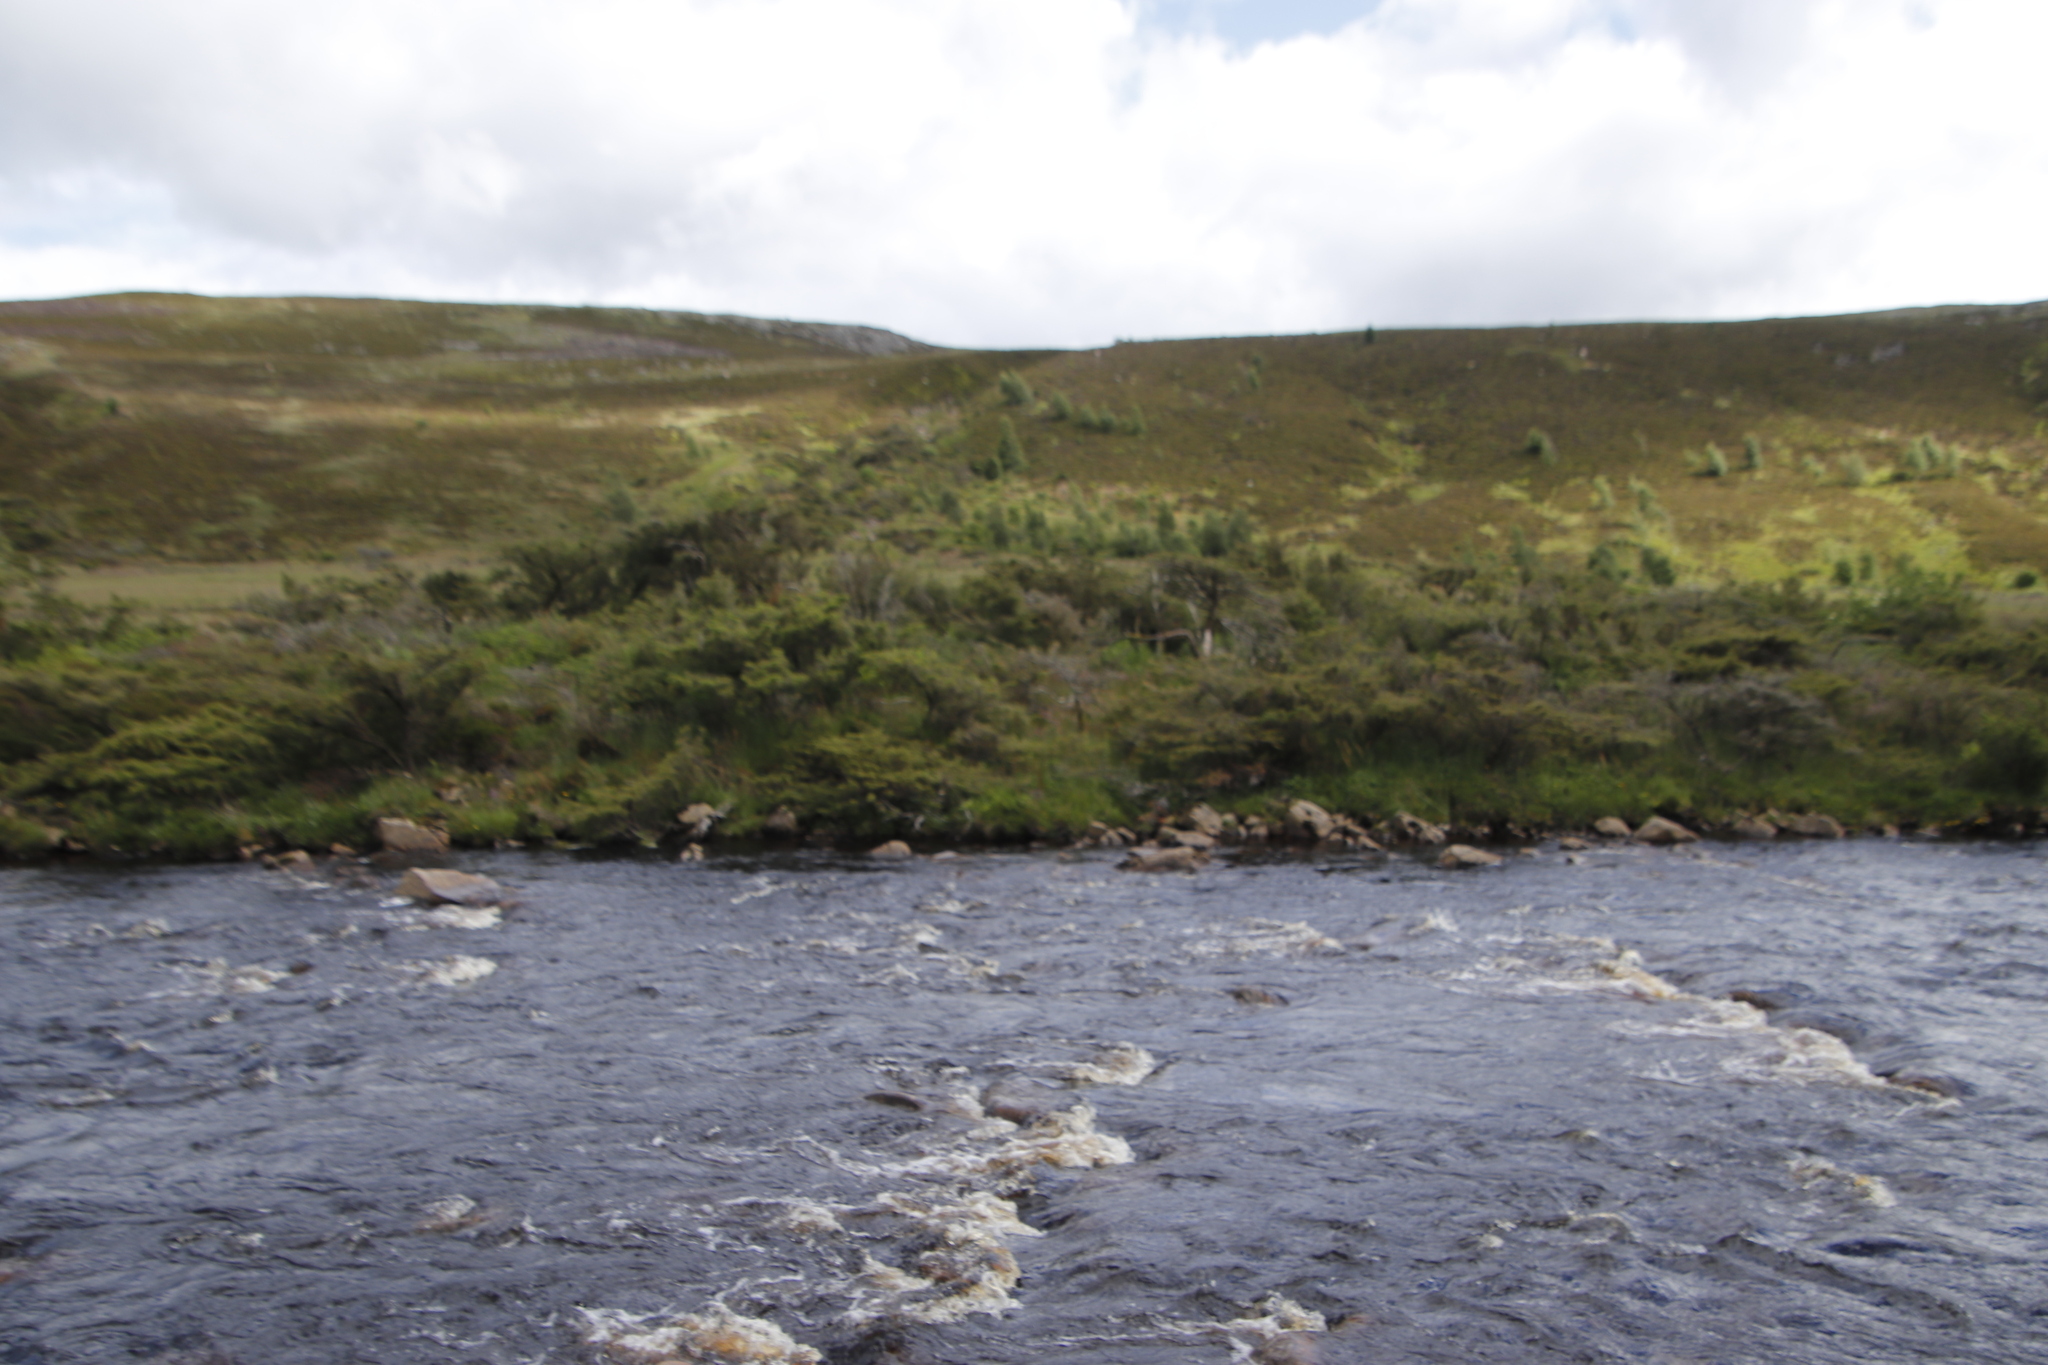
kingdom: Plantae
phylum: Tracheophyta
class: Magnoliopsida
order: Fabales
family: Fabaceae
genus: Ulex
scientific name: Ulex europaeus
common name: Common gorse
